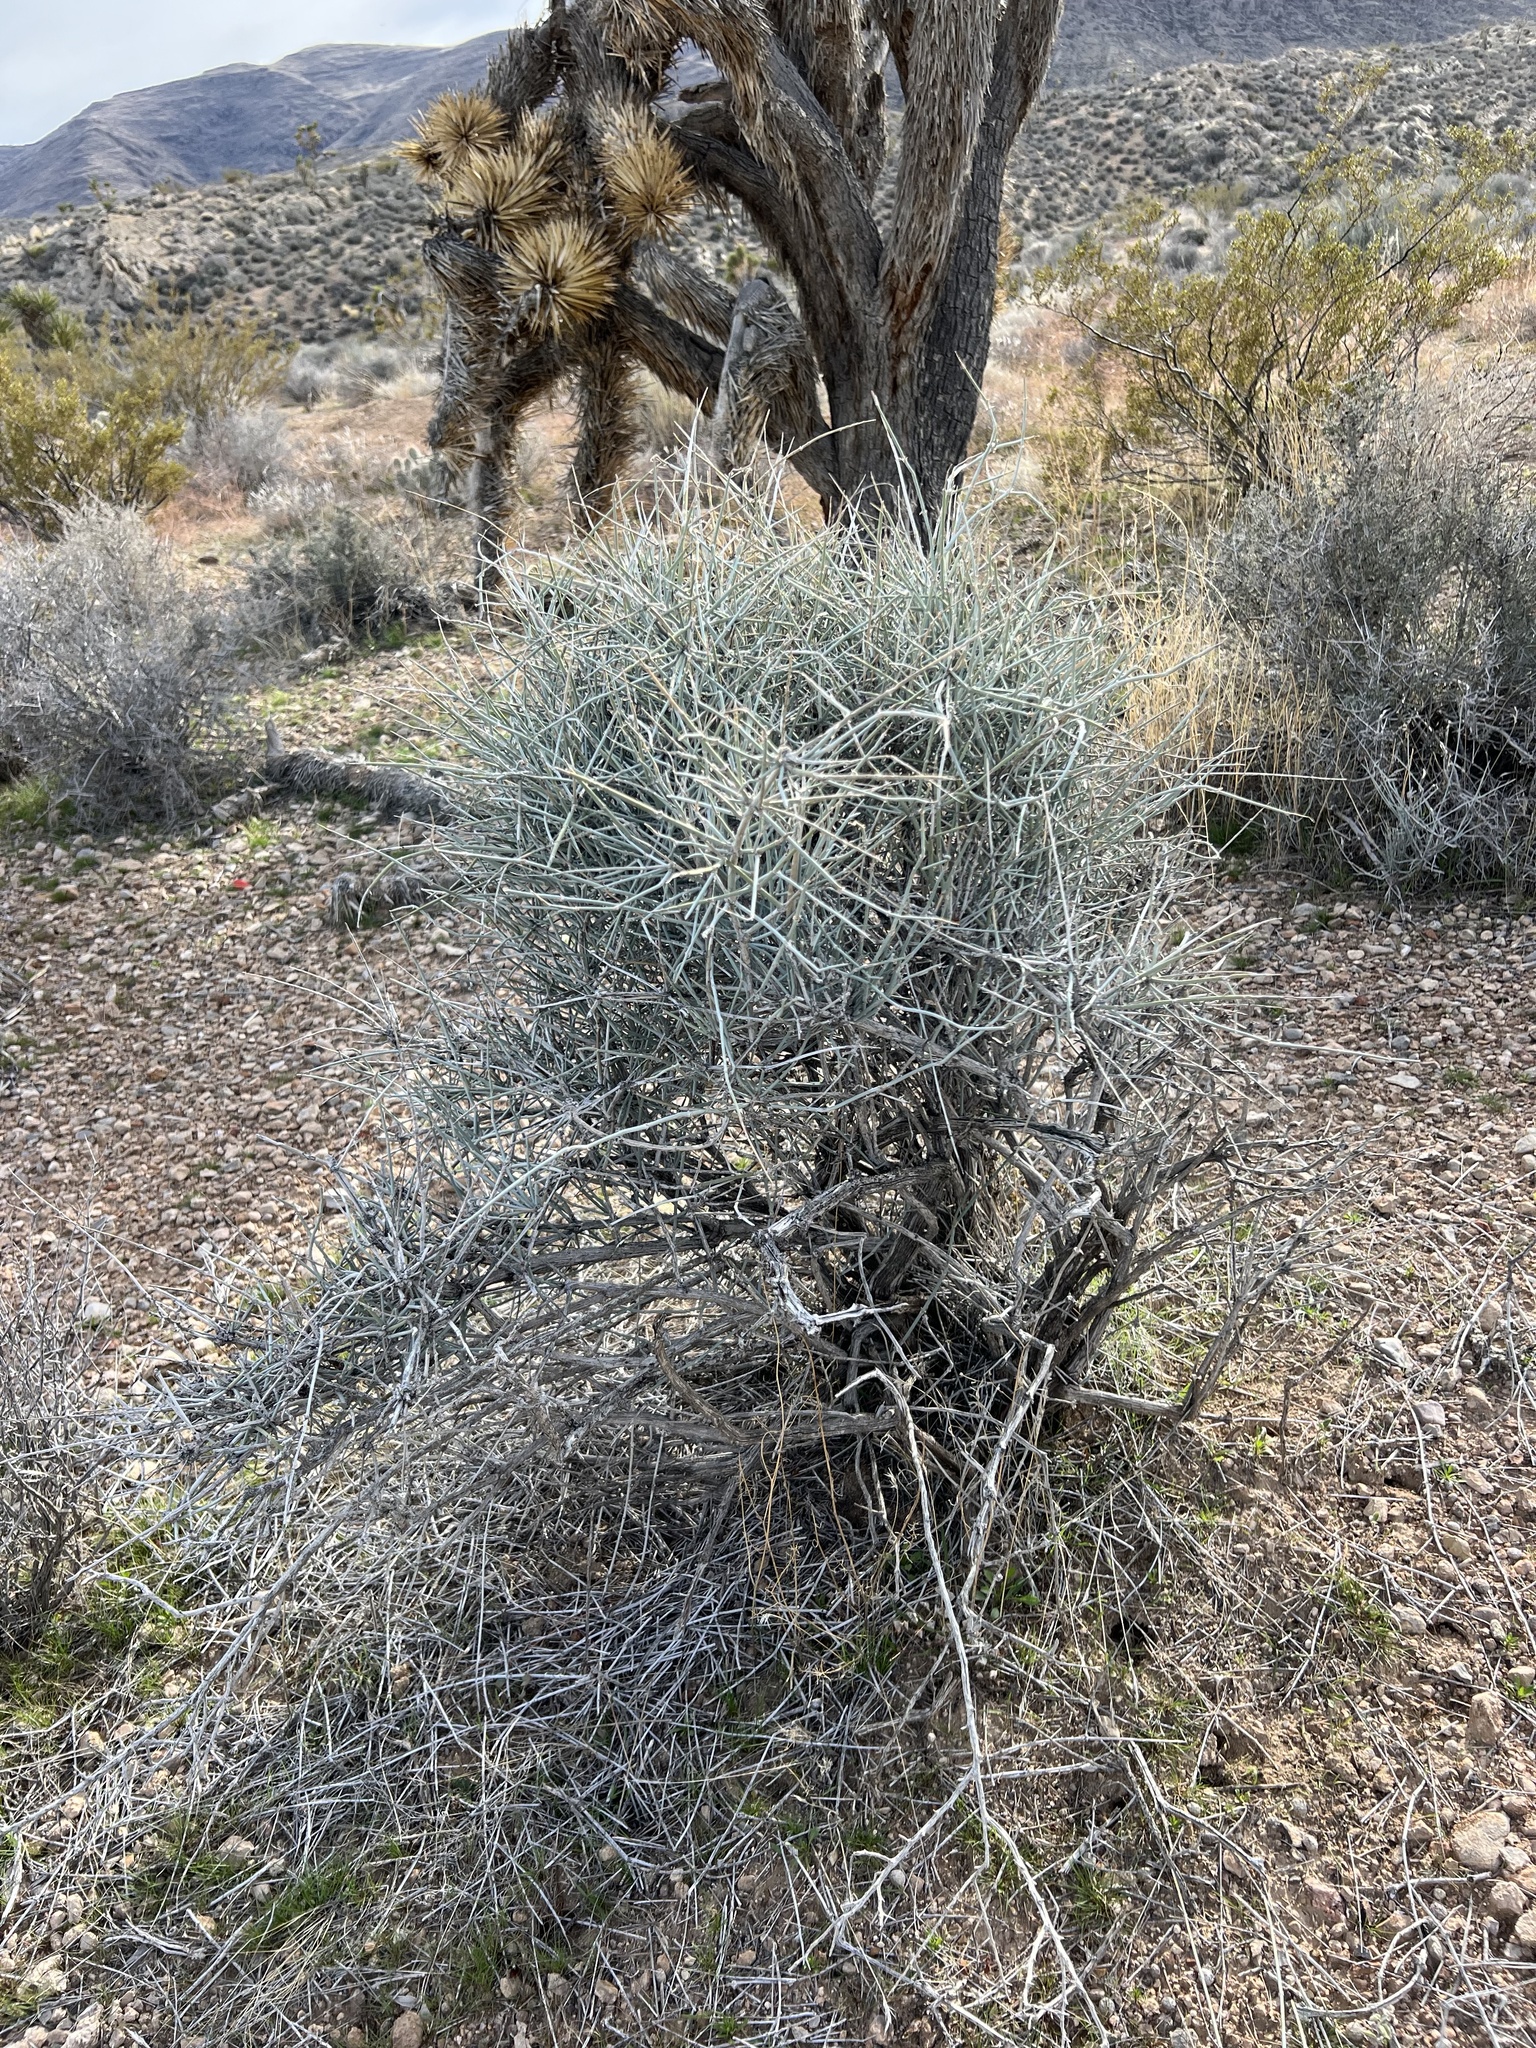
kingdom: Plantae
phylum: Tracheophyta
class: Gnetopsida
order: Ephedrales
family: Ephedraceae
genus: Ephedra
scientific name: Ephedra nevadensis
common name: Gray ephedra
